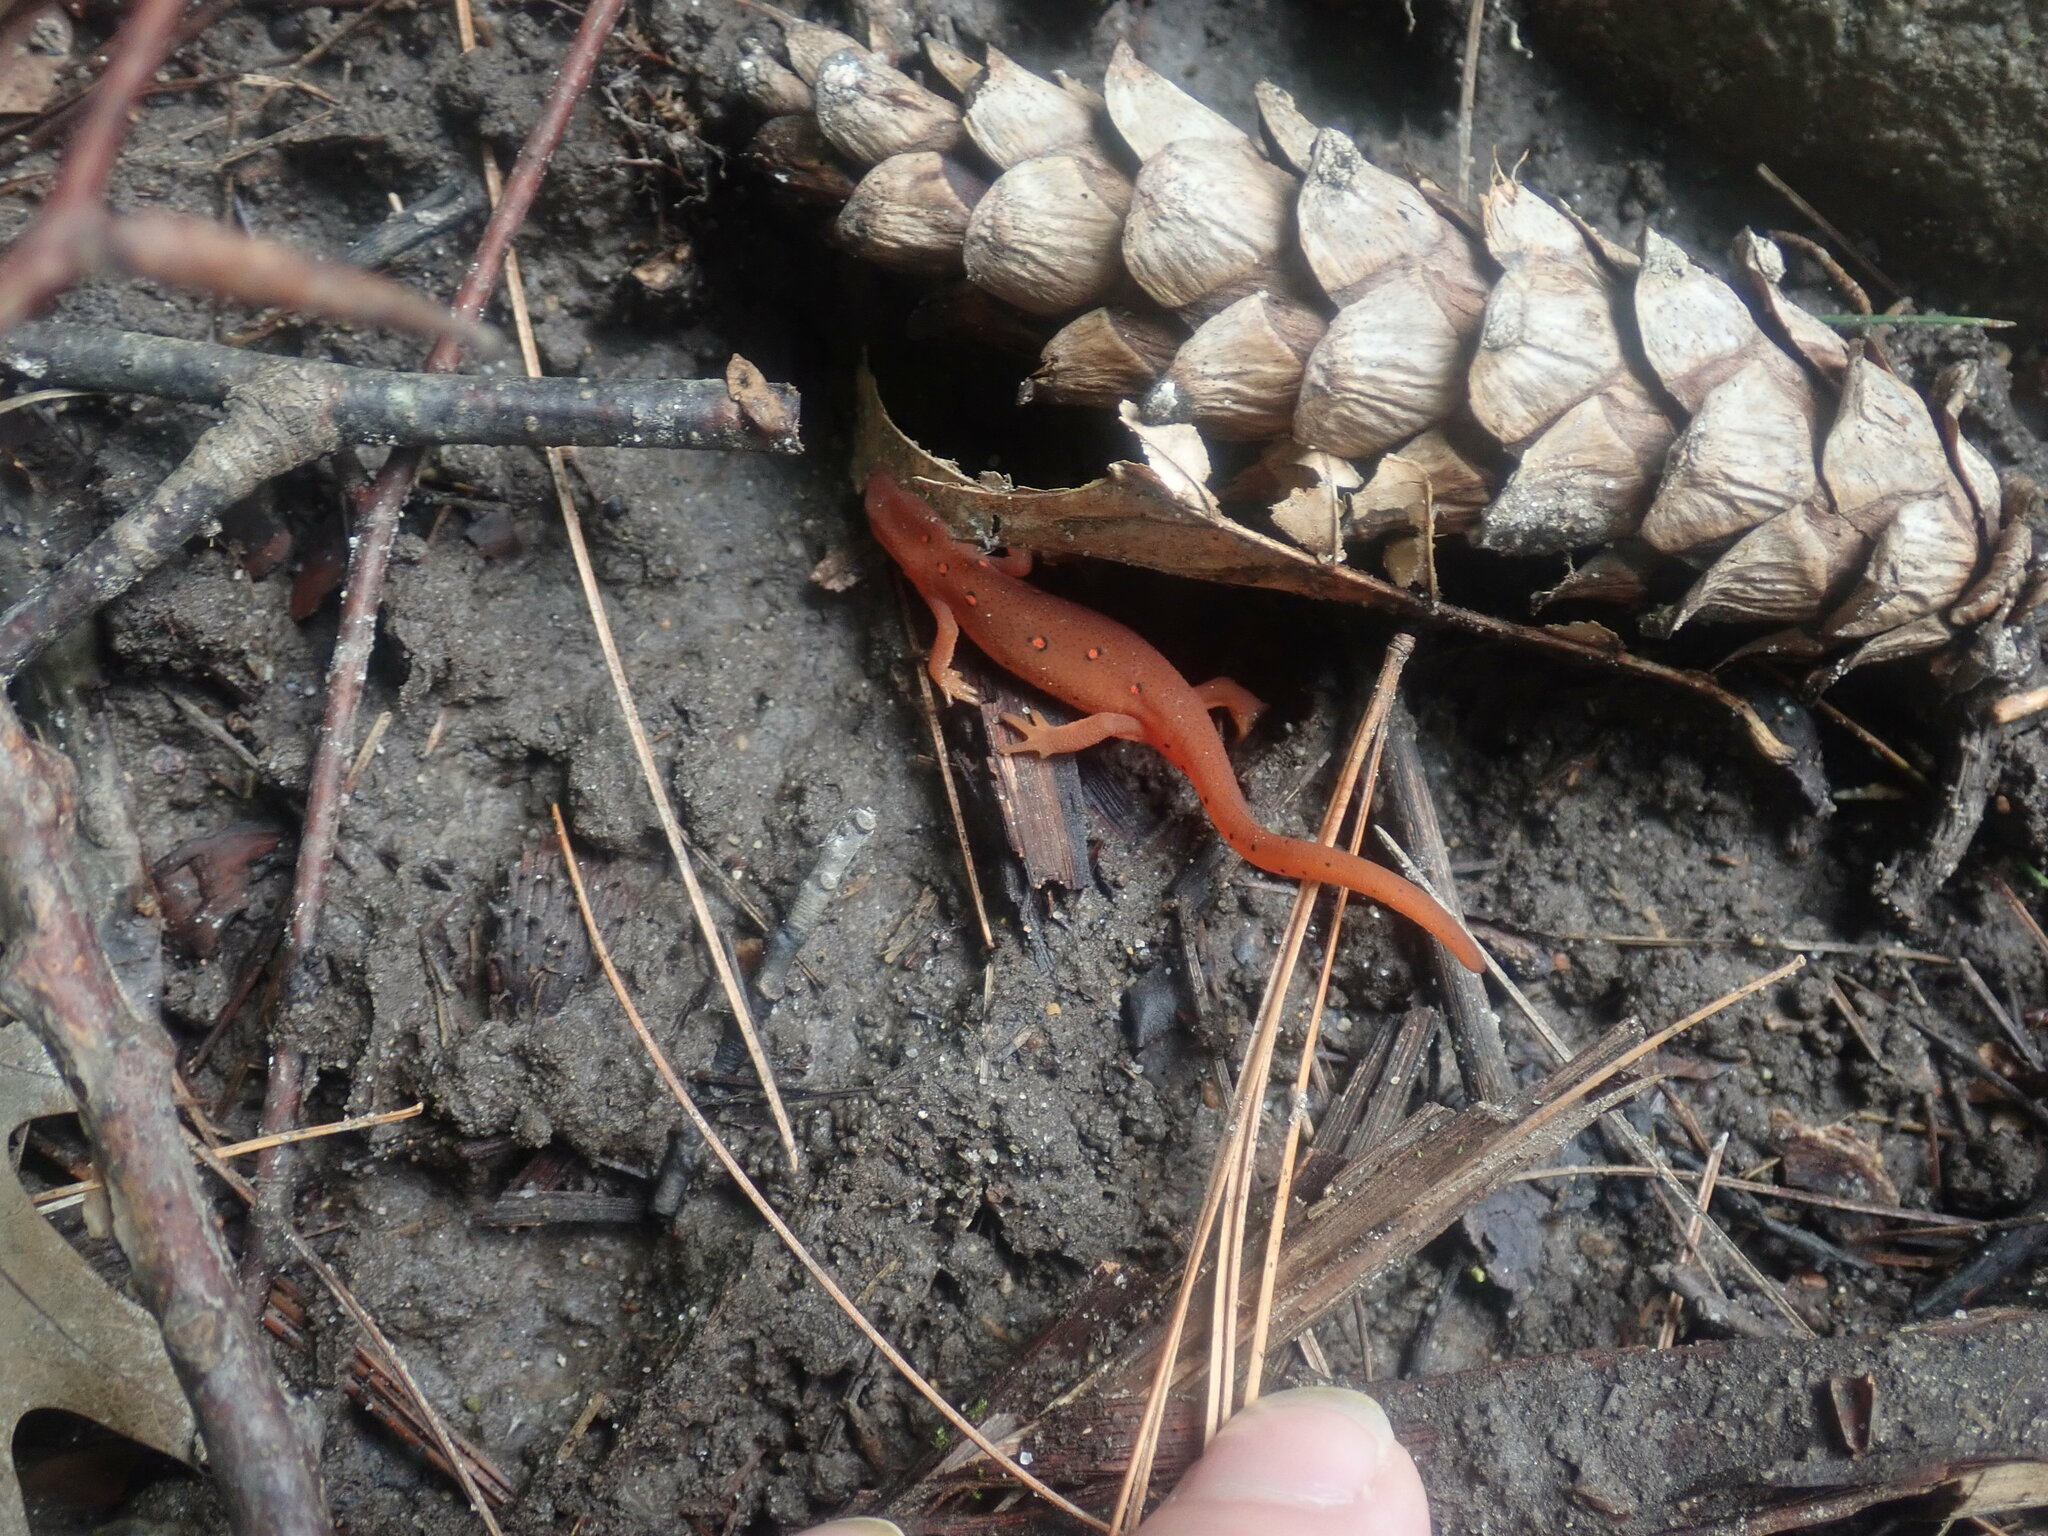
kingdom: Animalia
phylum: Chordata
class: Amphibia
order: Caudata
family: Salamandridae
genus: Notophthalmus
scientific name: Notophthalmus viridescens
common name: Eastern newt
